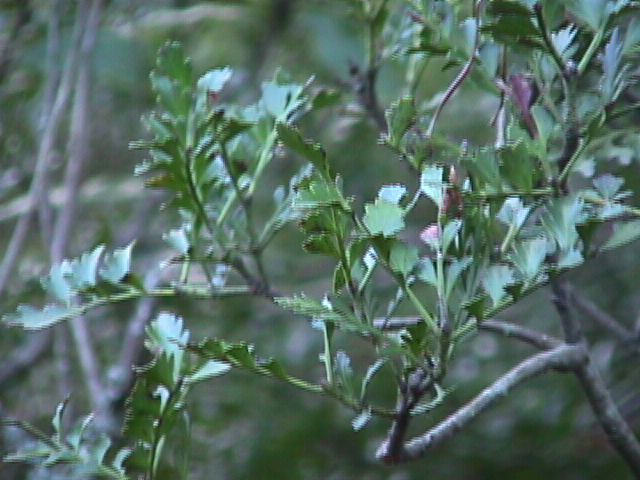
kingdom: Plantae
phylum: Tracheophyta
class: Pinopsida
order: Pinales
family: Phyllocladaceae
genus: Phyllocladus
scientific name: Phyllocladus trichomanoides
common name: Celery pine
